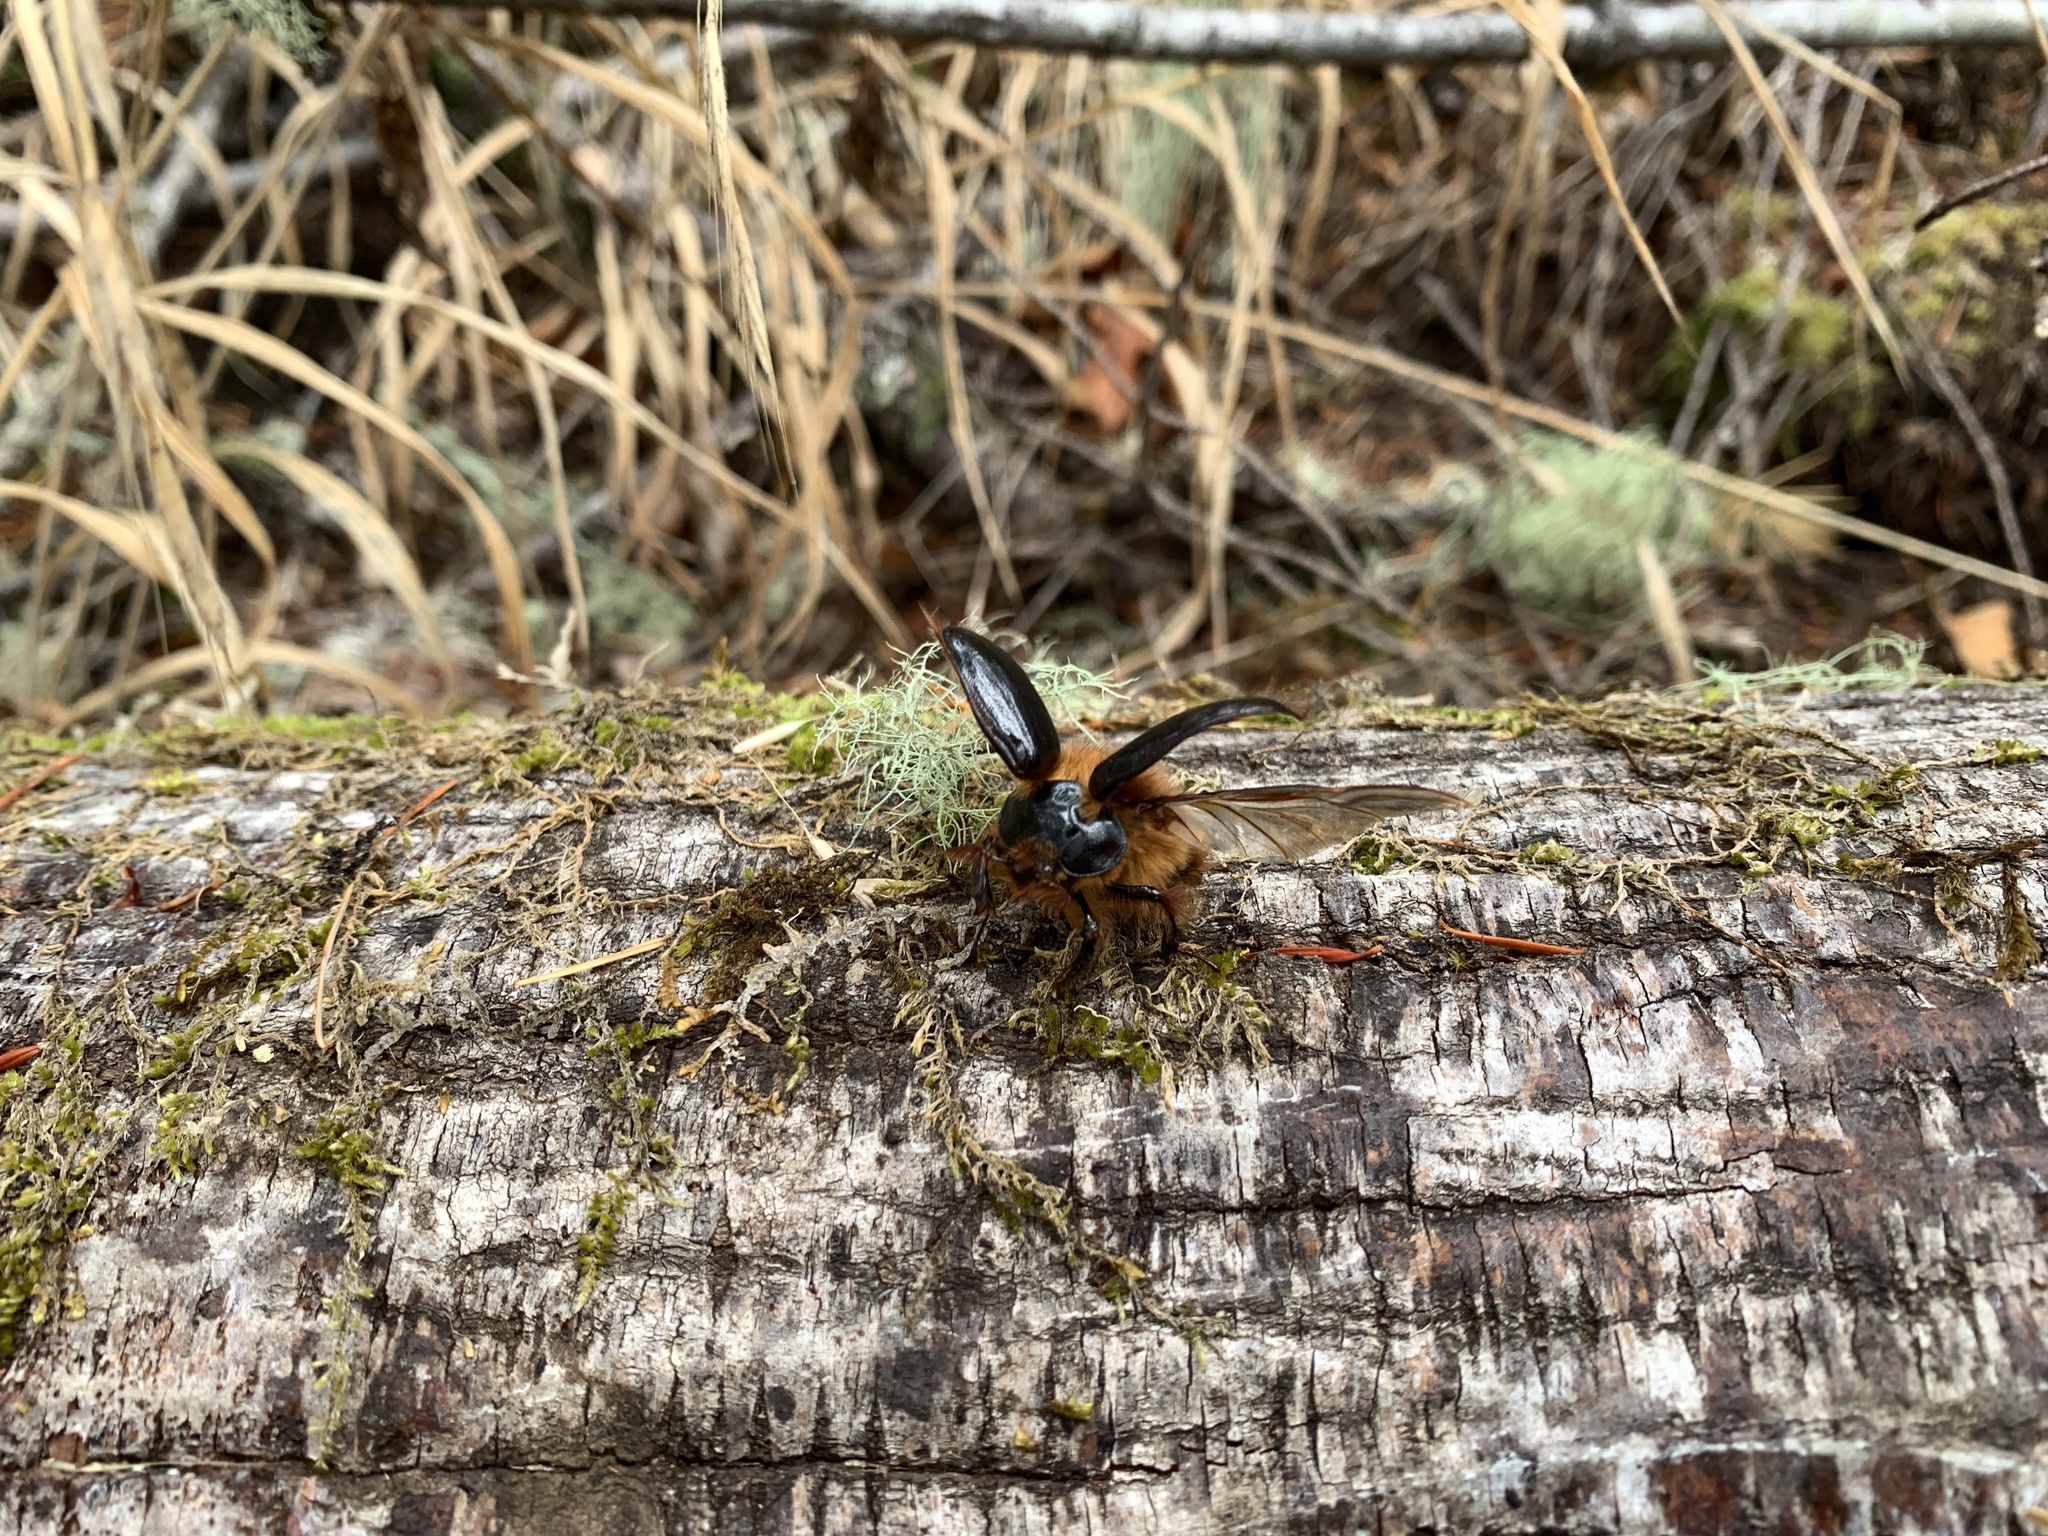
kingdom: Animalia
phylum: Arthropoda
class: Insecta
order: Coleoptera
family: Pleocomidae
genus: Pleocoma
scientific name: Pleocoma dubitabilis
